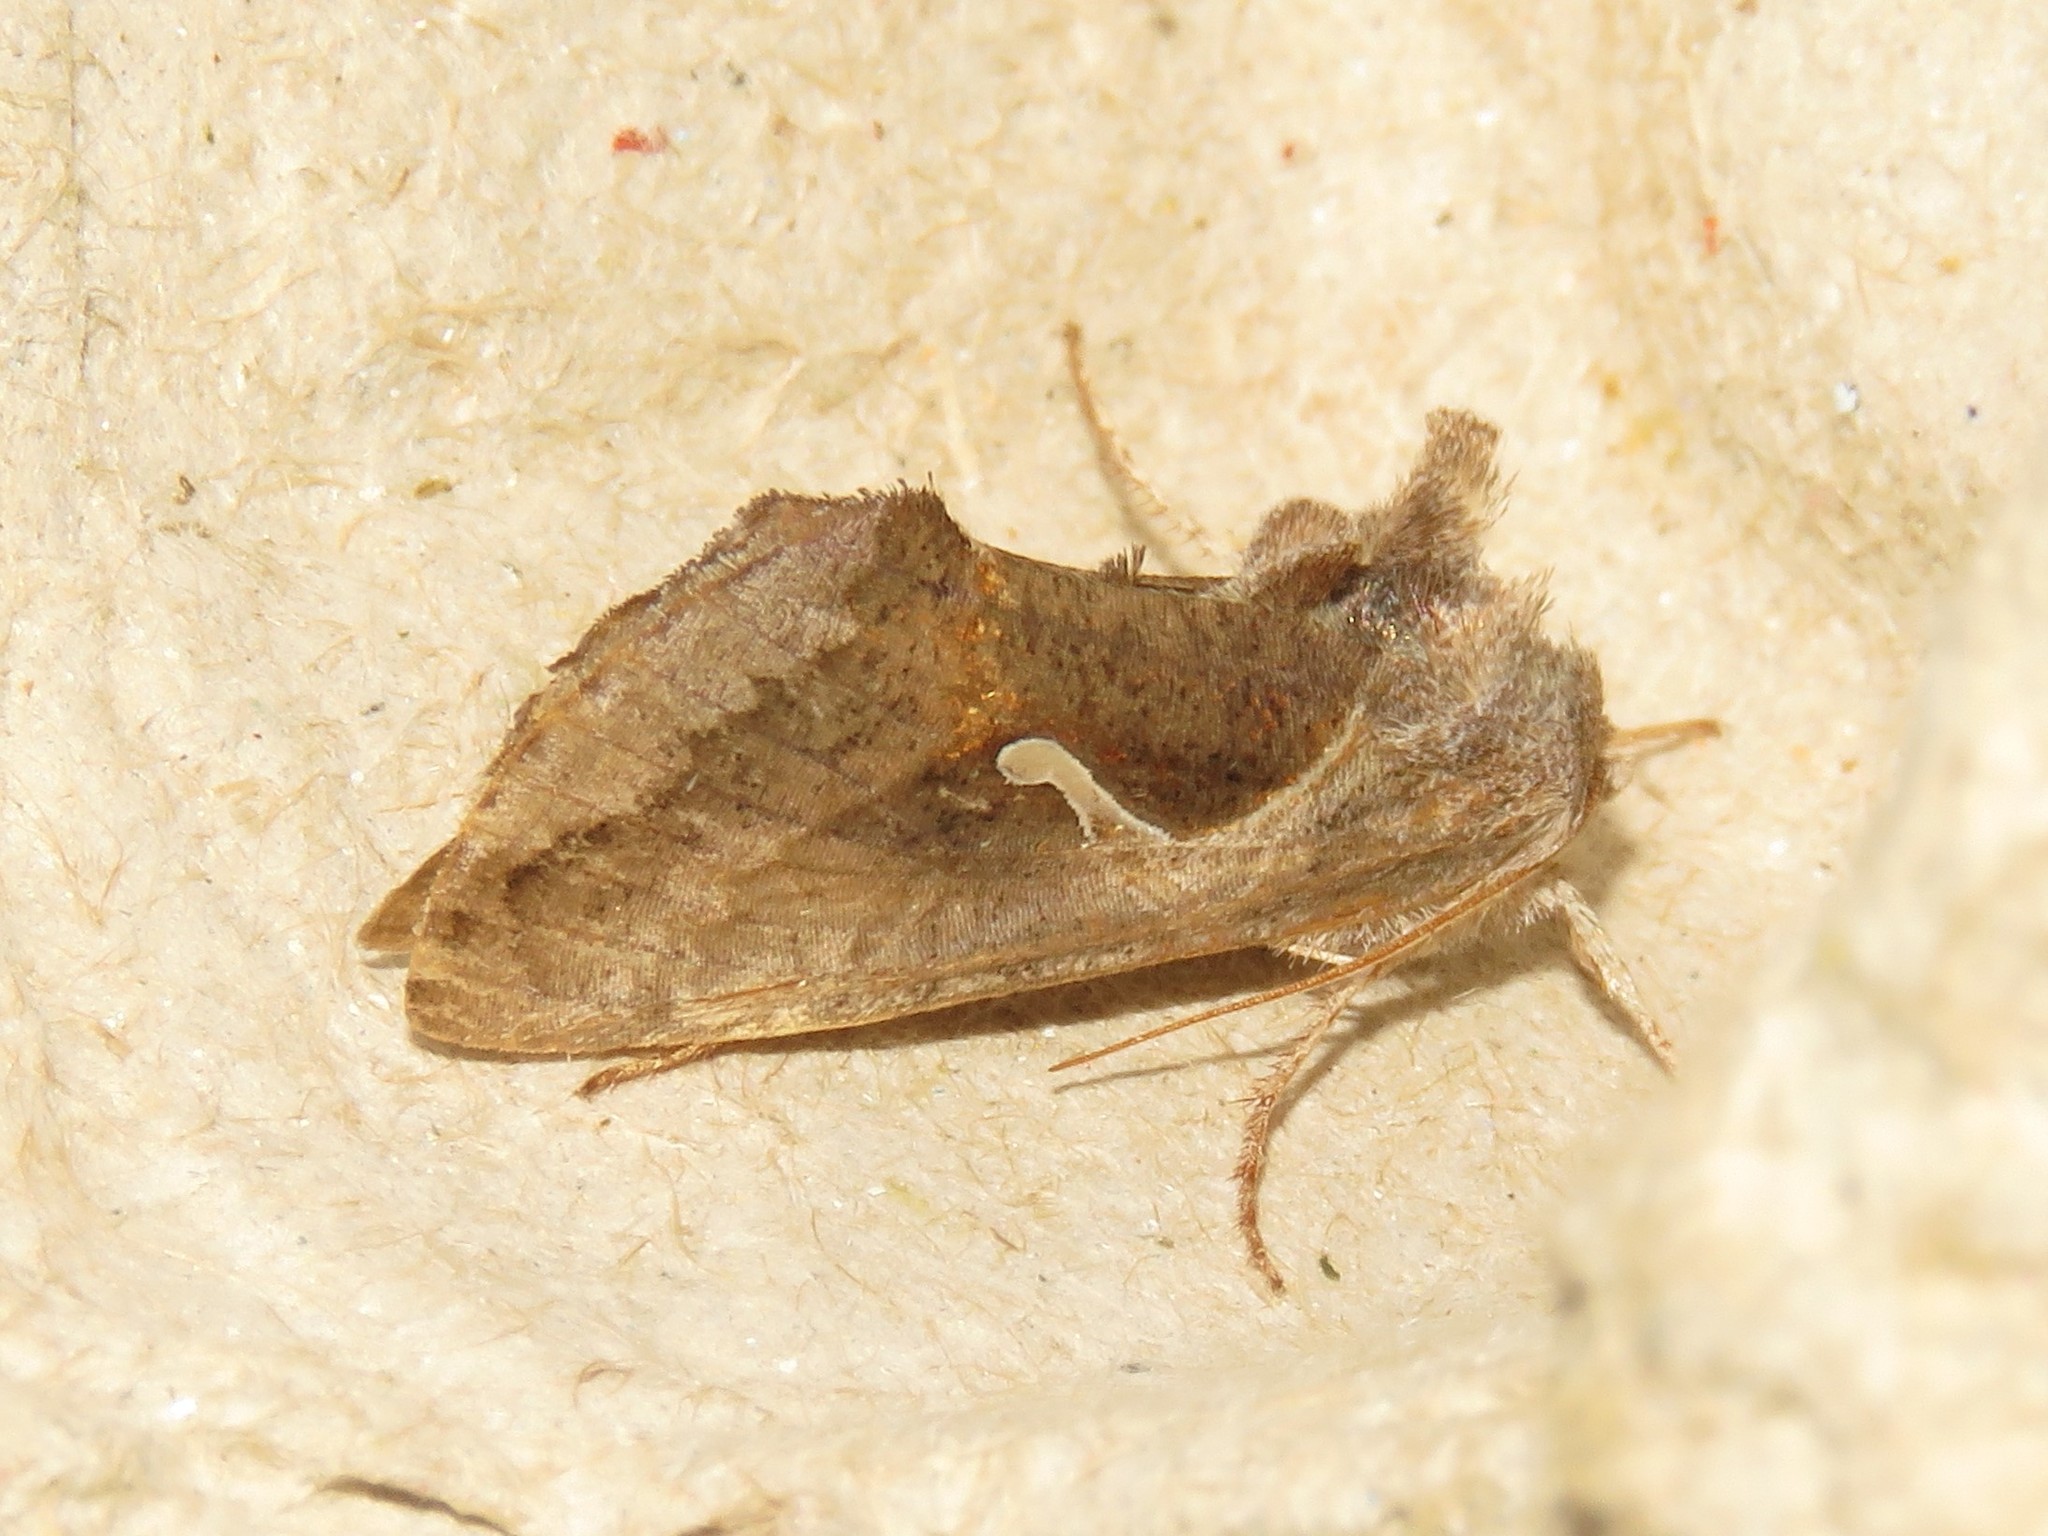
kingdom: Animalia
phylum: Arthropoda
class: Insecta
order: Lepidoptera
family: Noctuidae
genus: Anagrapha
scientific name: Anagrapha falcifera
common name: Celery looper
